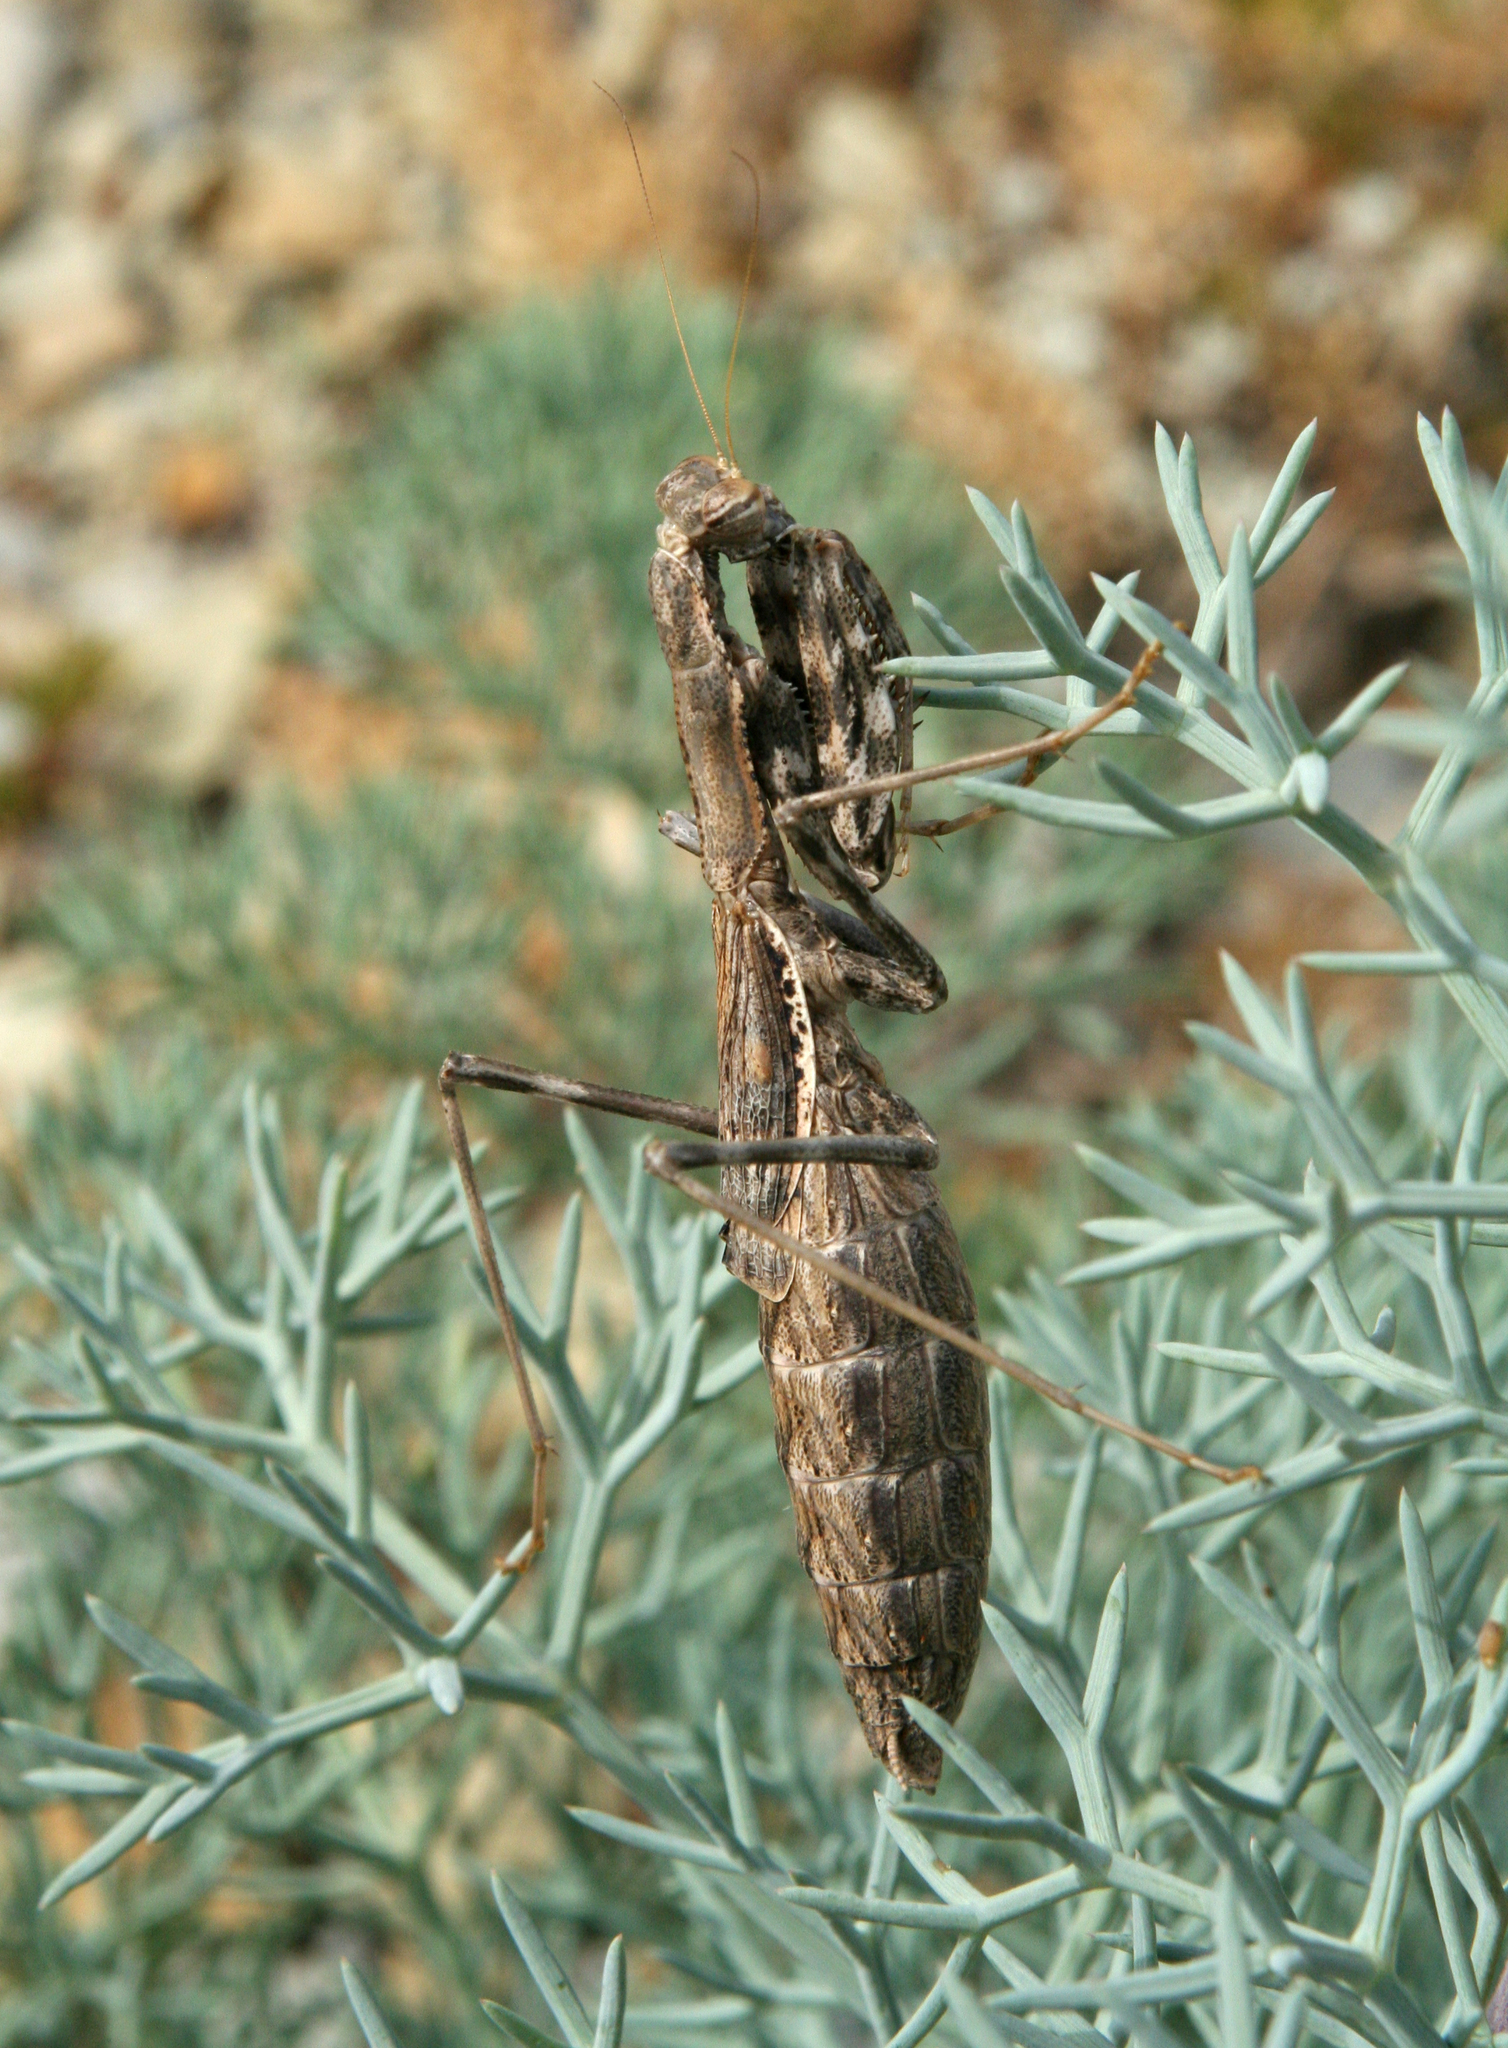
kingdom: Animalia
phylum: Arthropoda
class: Insecta
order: Mantodea
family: Rivetinidae
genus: Bolivaria
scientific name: Bolivaria brachyptera
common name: Bolivar's short winged mantis
